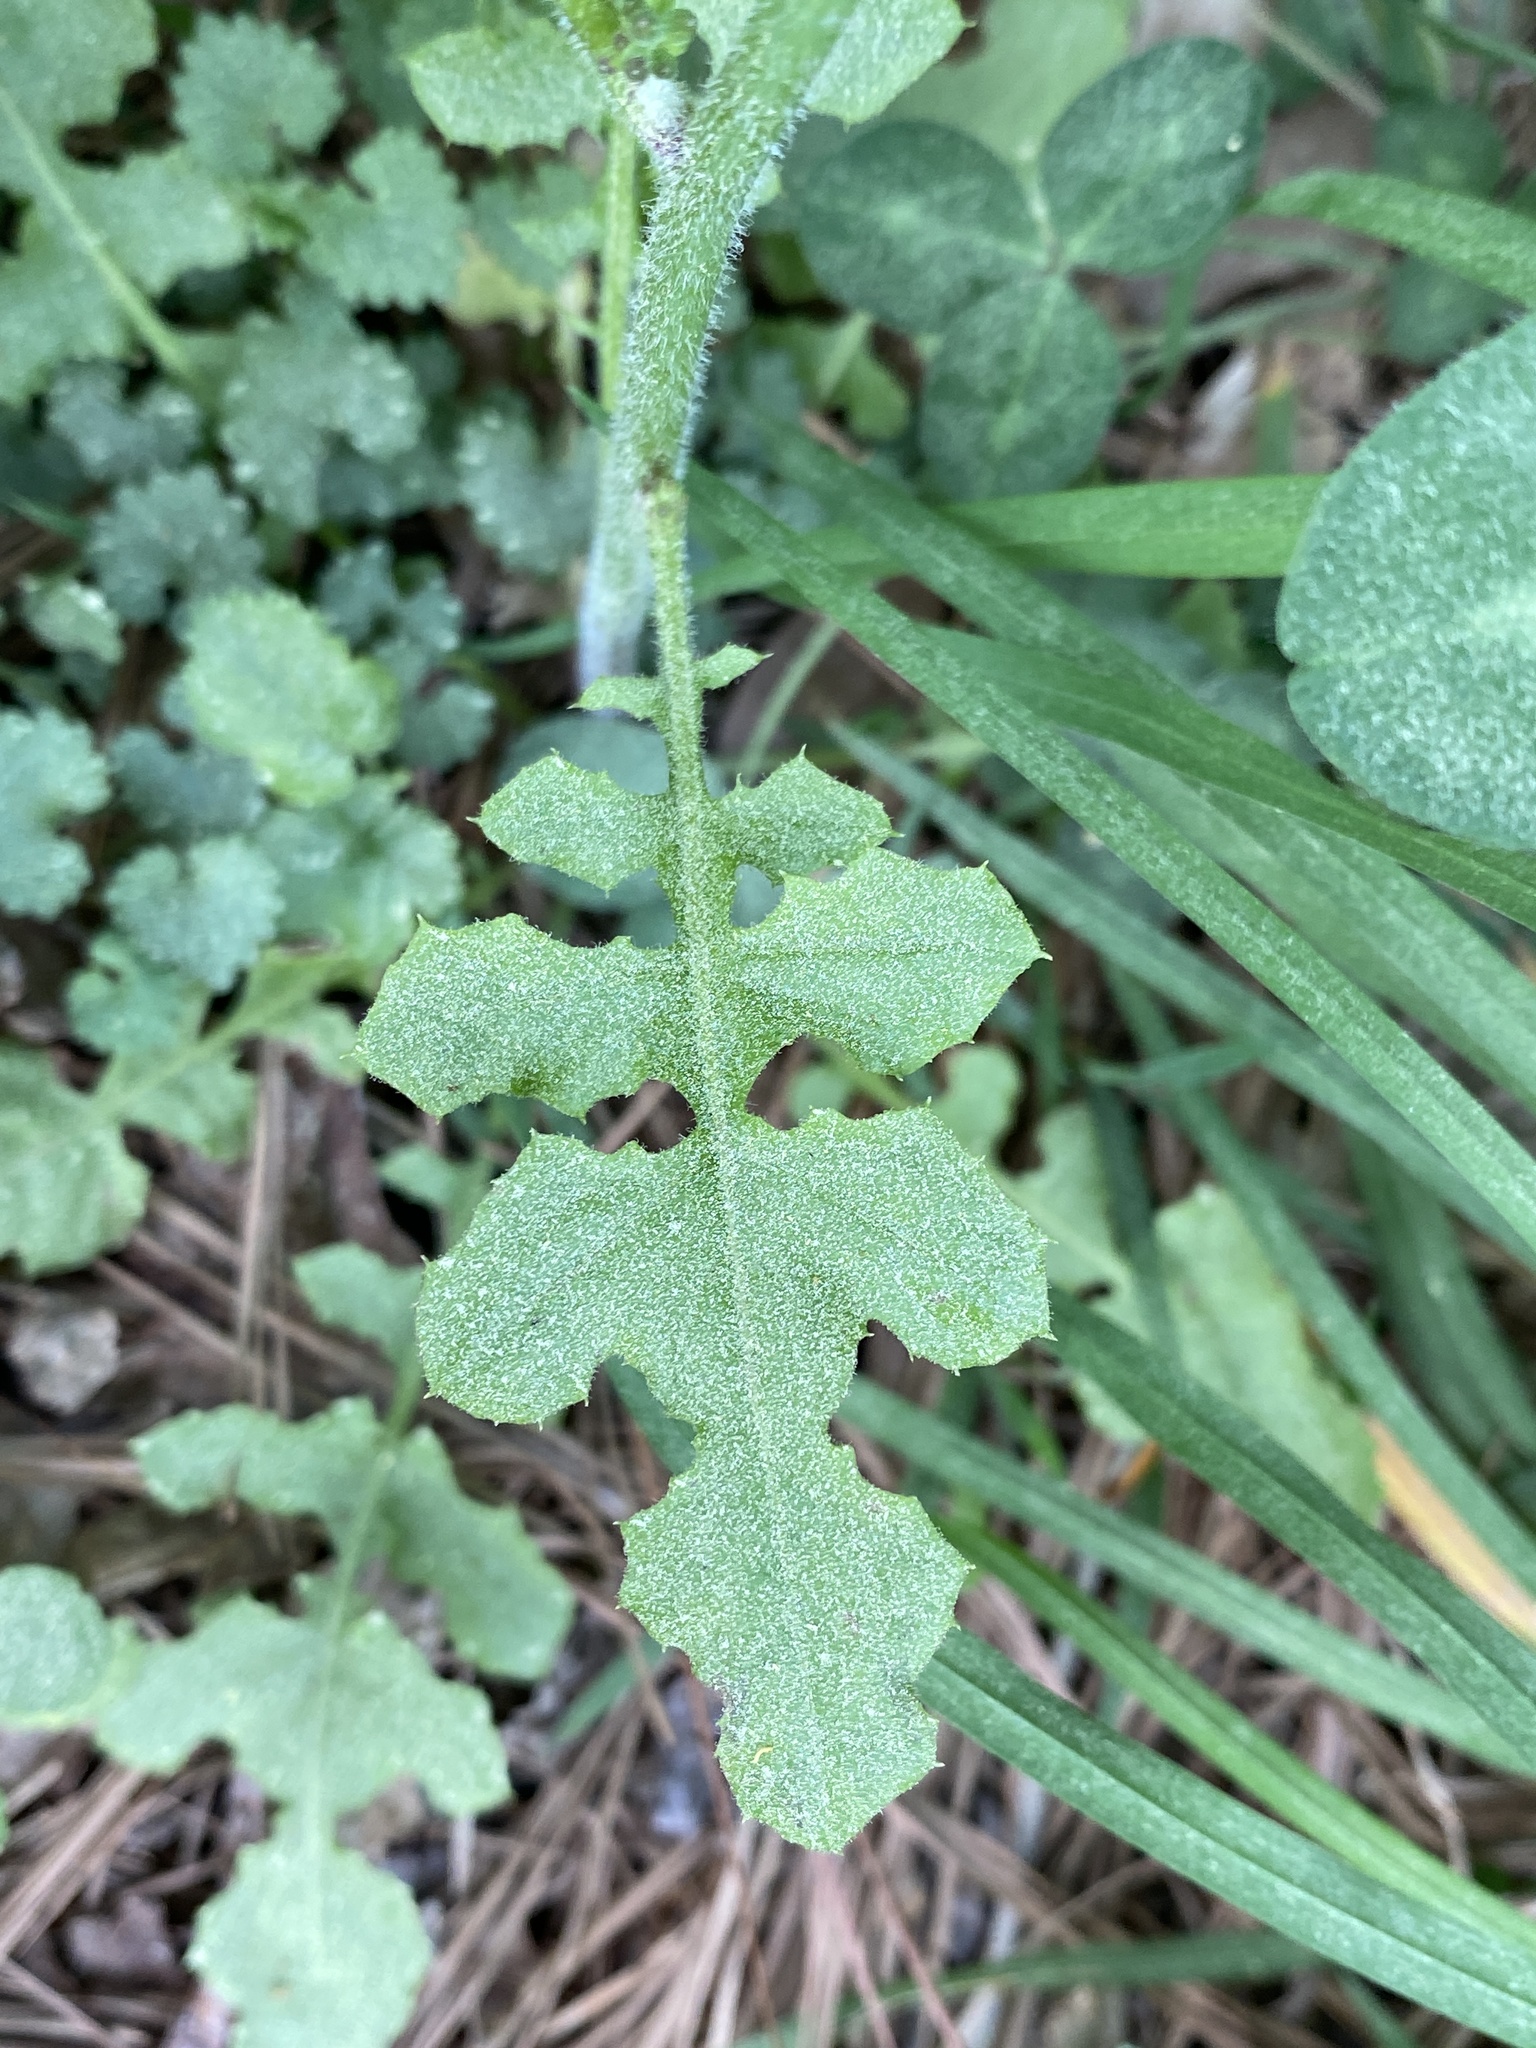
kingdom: Plantae
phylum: Tracheophyta
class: Magnoliopsida
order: Asterales
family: Asteraceae
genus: Youngia
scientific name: Youngia japonica
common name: Oriental false hawksbeard
